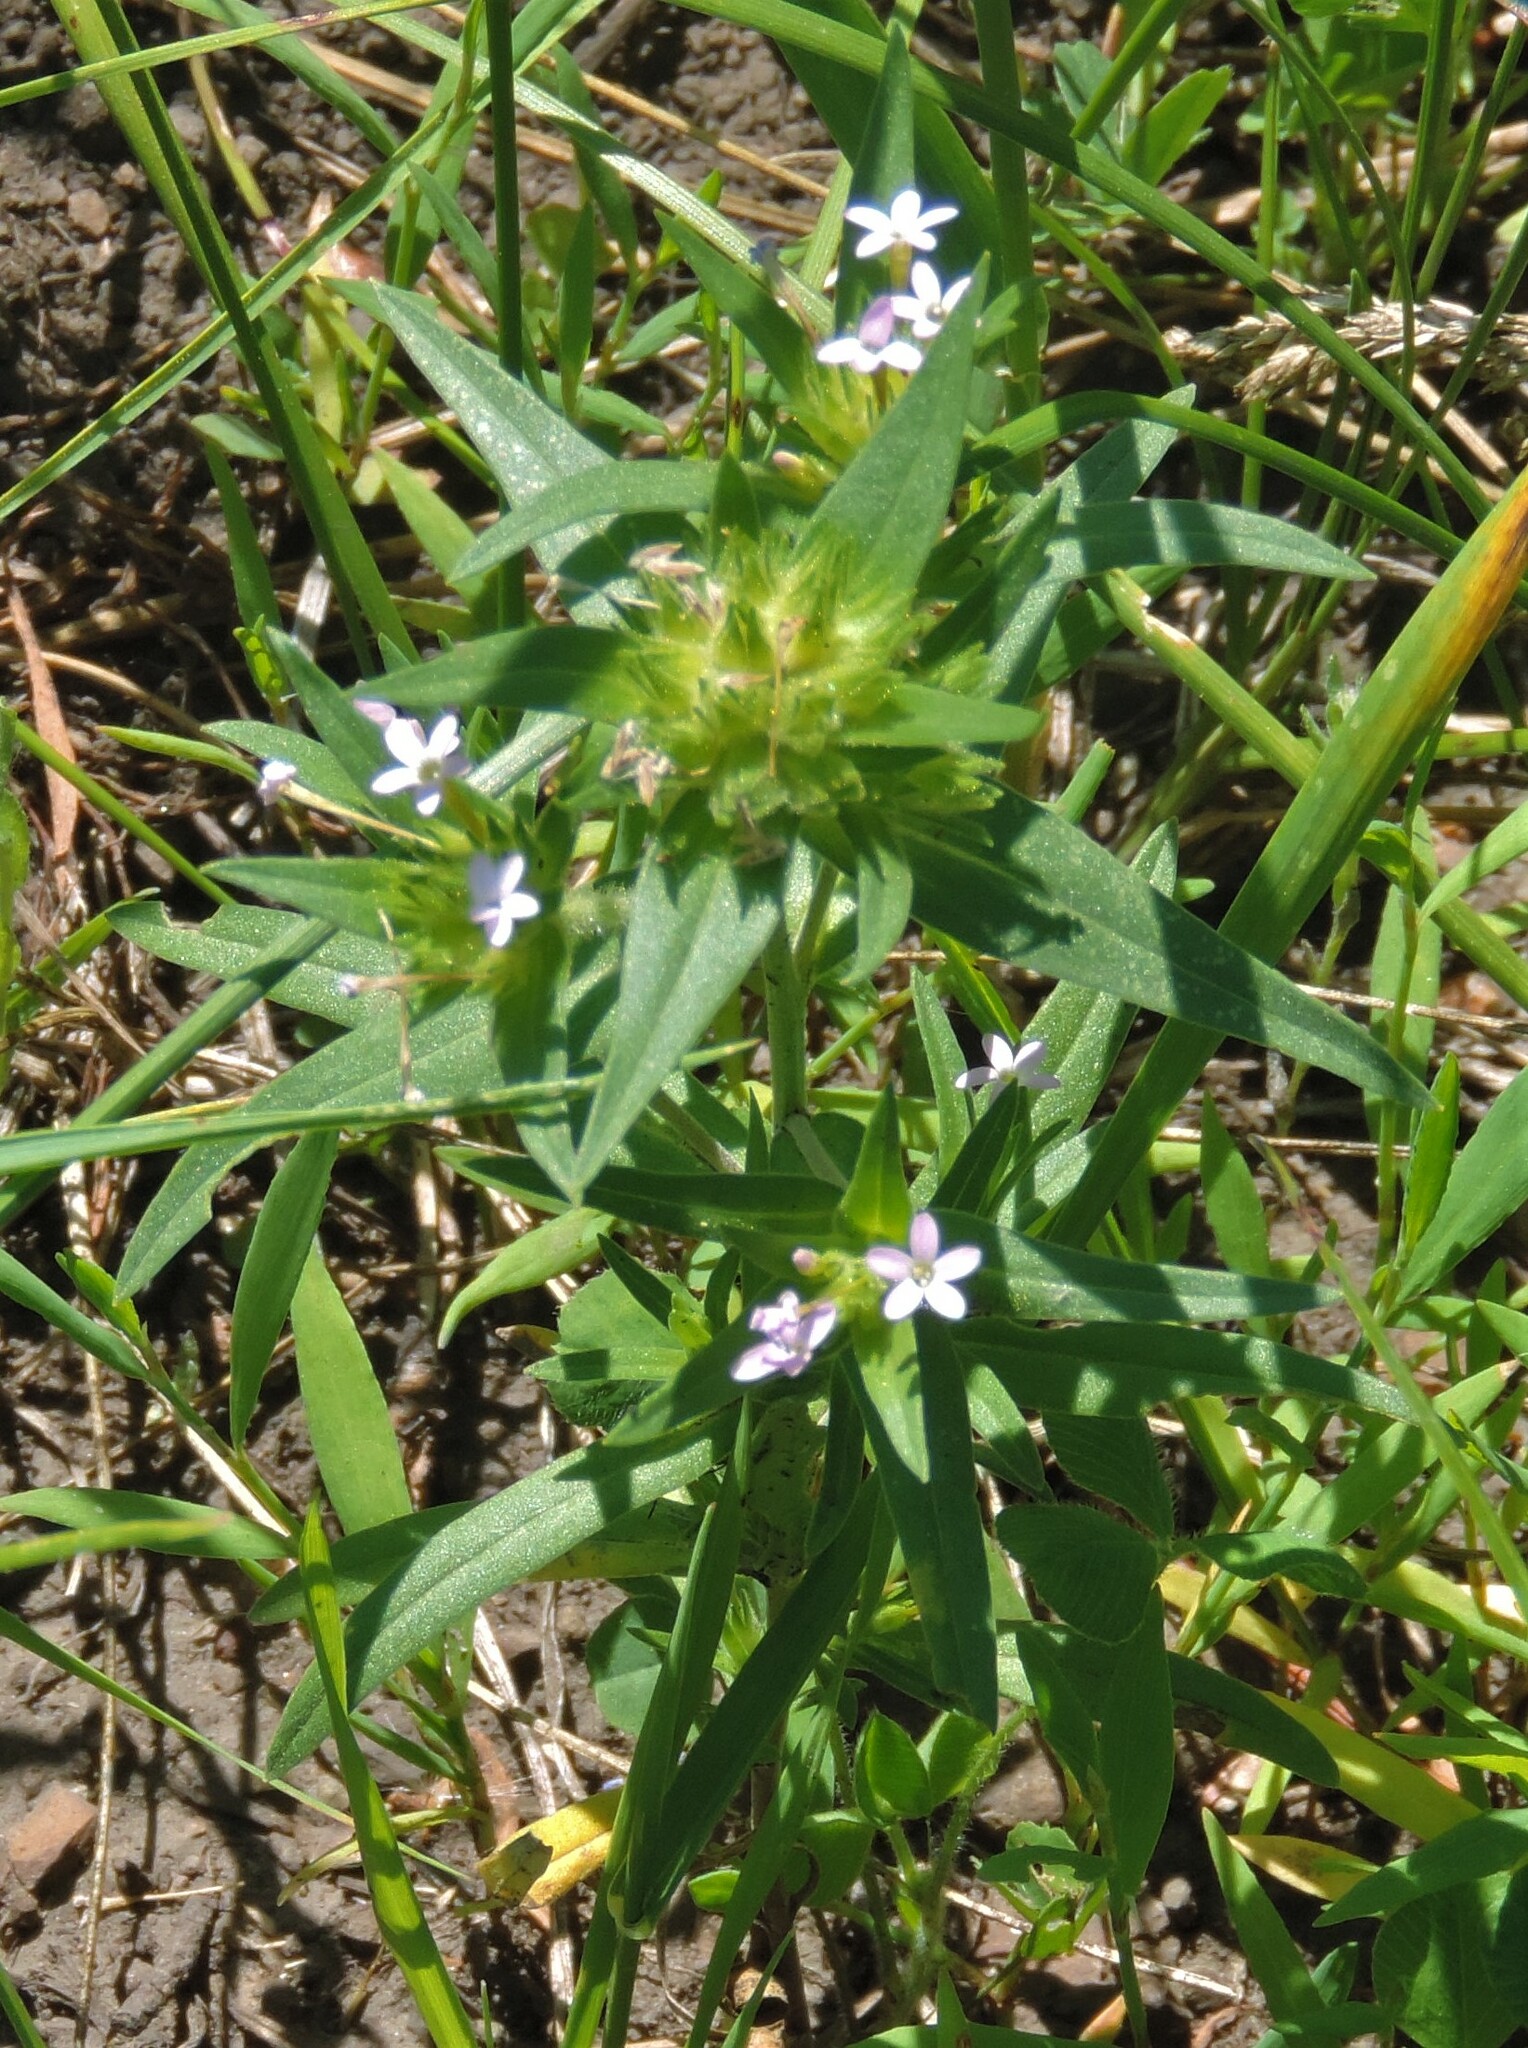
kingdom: Plantae
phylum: Tracheophyta
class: Magnoliopsida
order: Ericales
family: Polemoniaceae
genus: Collomia
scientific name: Collomia linearis
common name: Tiny trumpet
